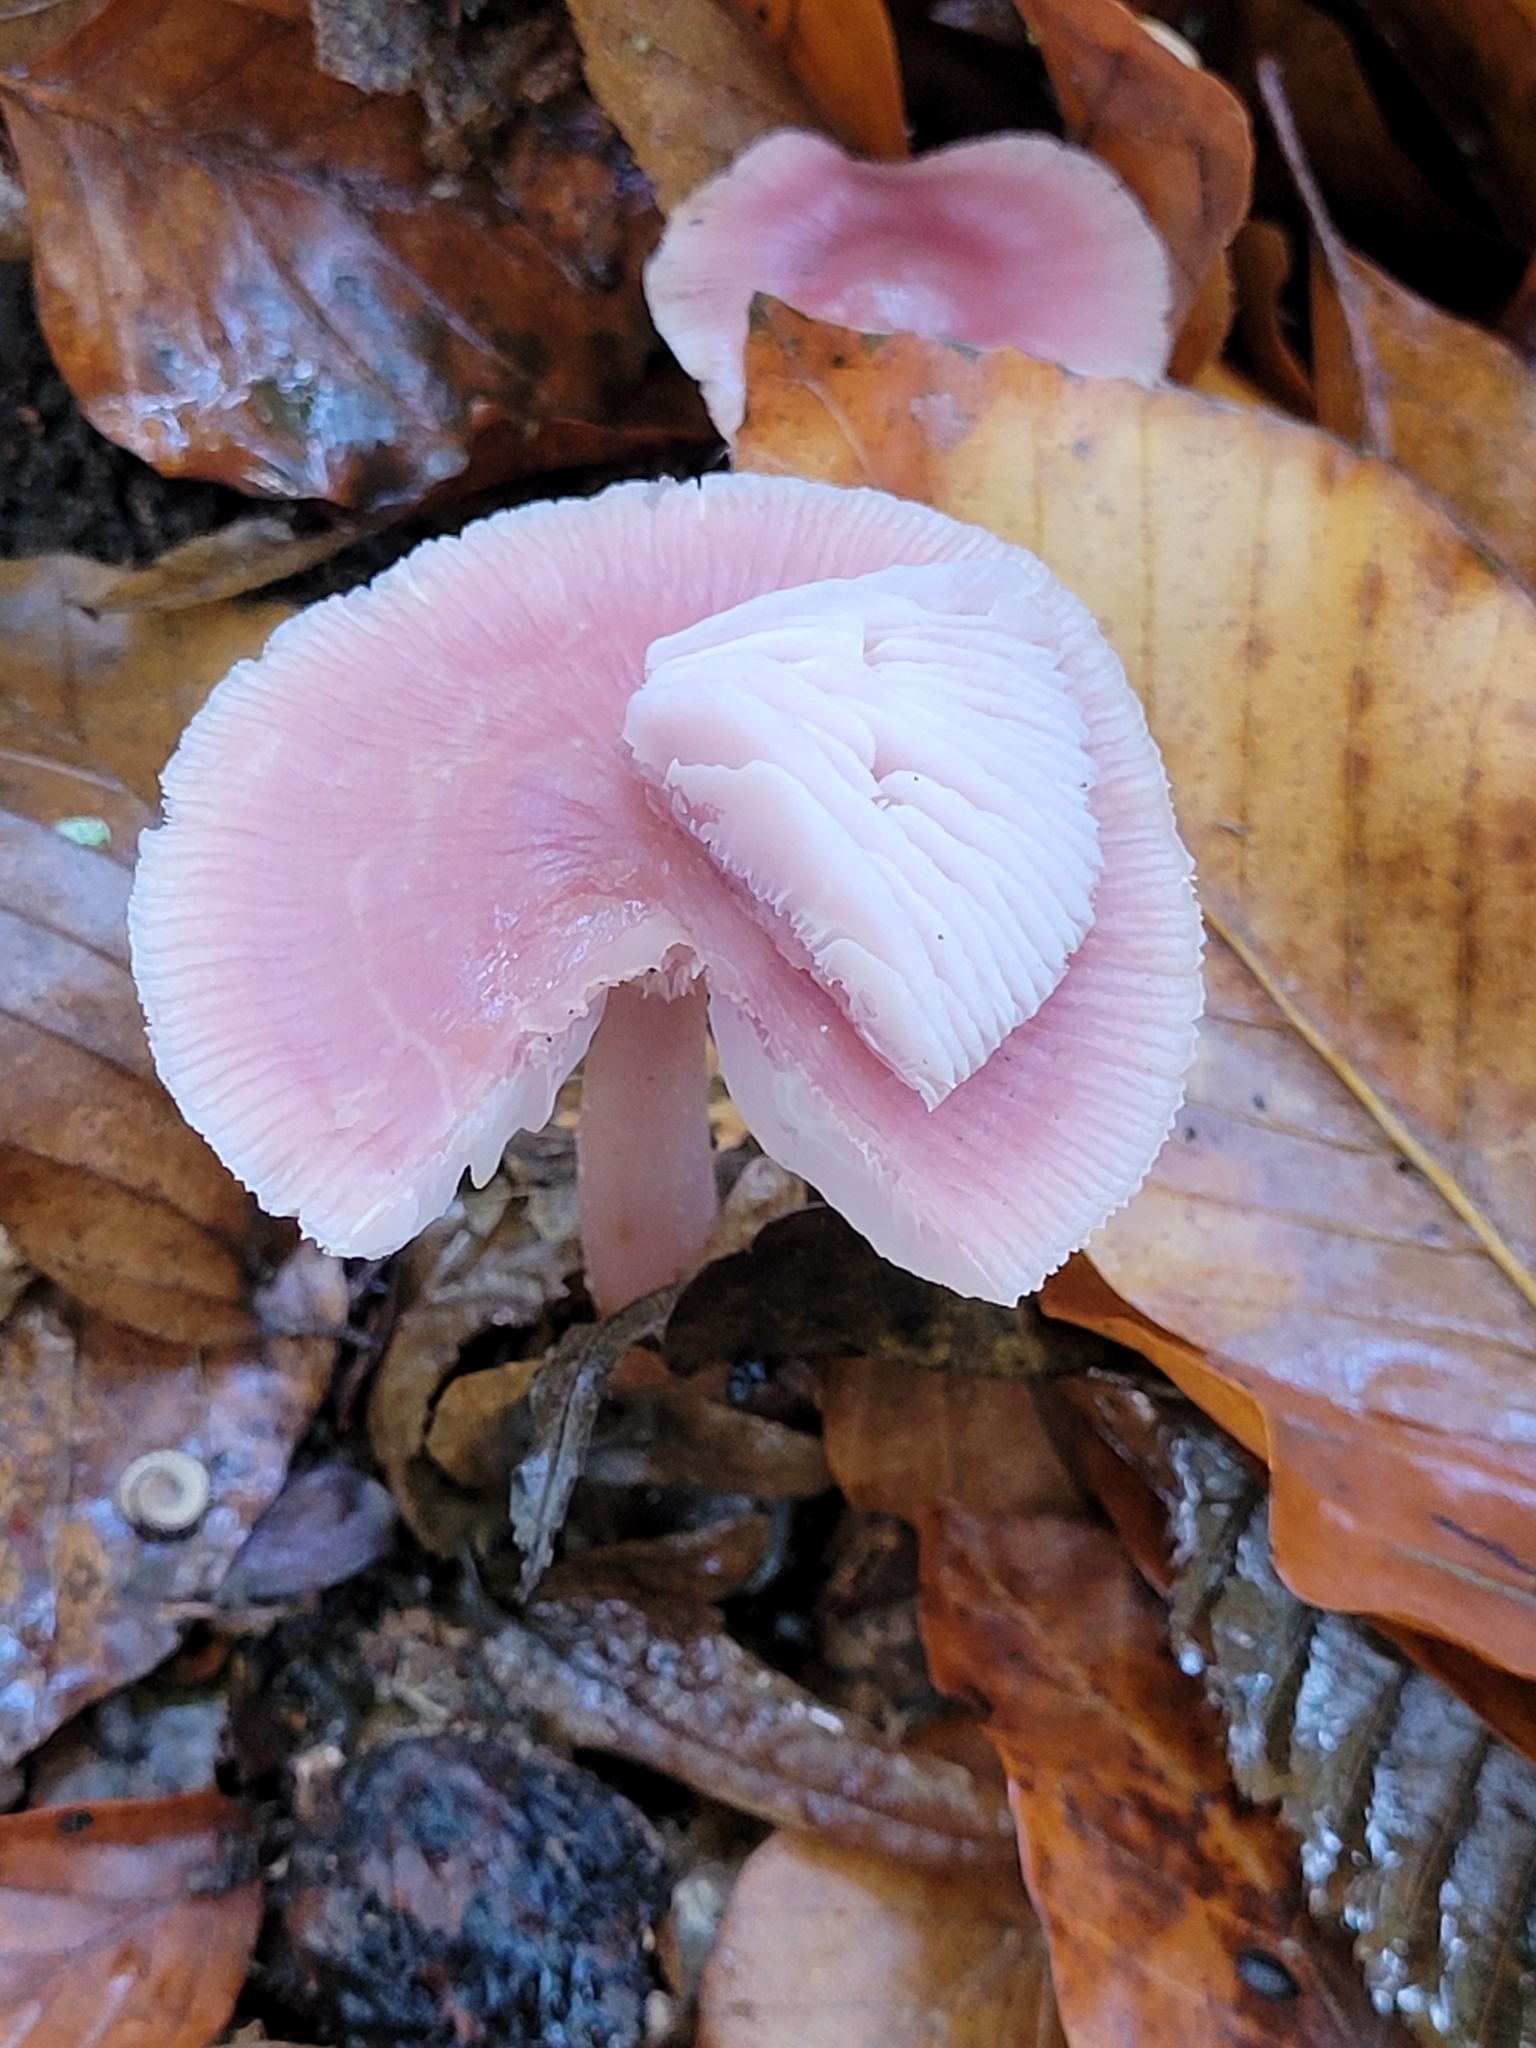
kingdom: Fungi
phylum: Basidiomycota
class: Agaricomycetes
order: Agaricales
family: Mycenaceae
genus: Mycena
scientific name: Mycena rosea
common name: Rosy bonnet
